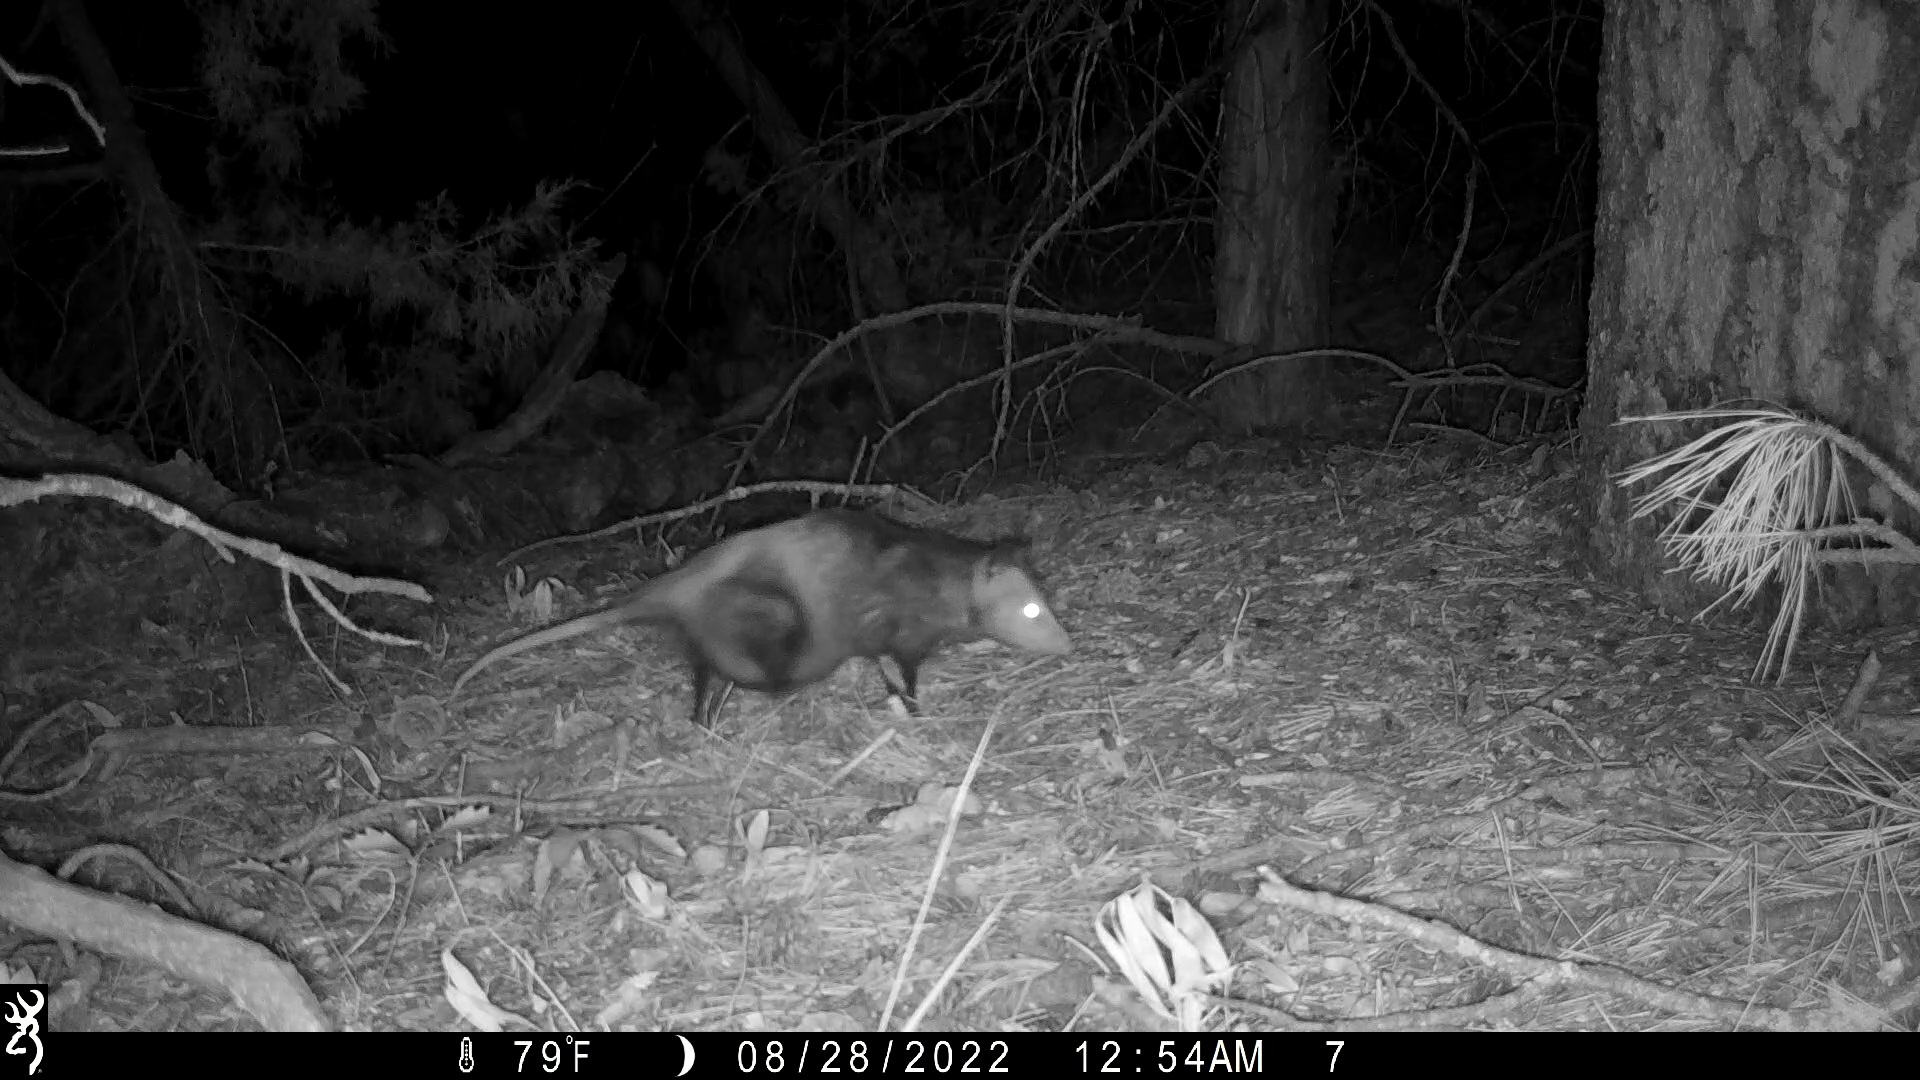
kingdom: Animalia
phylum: Chordata
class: Mammalia
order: Didelphimorphia
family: Didelphidae
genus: Didelphis
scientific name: Didelphis virginiana
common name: Virginia opossum
